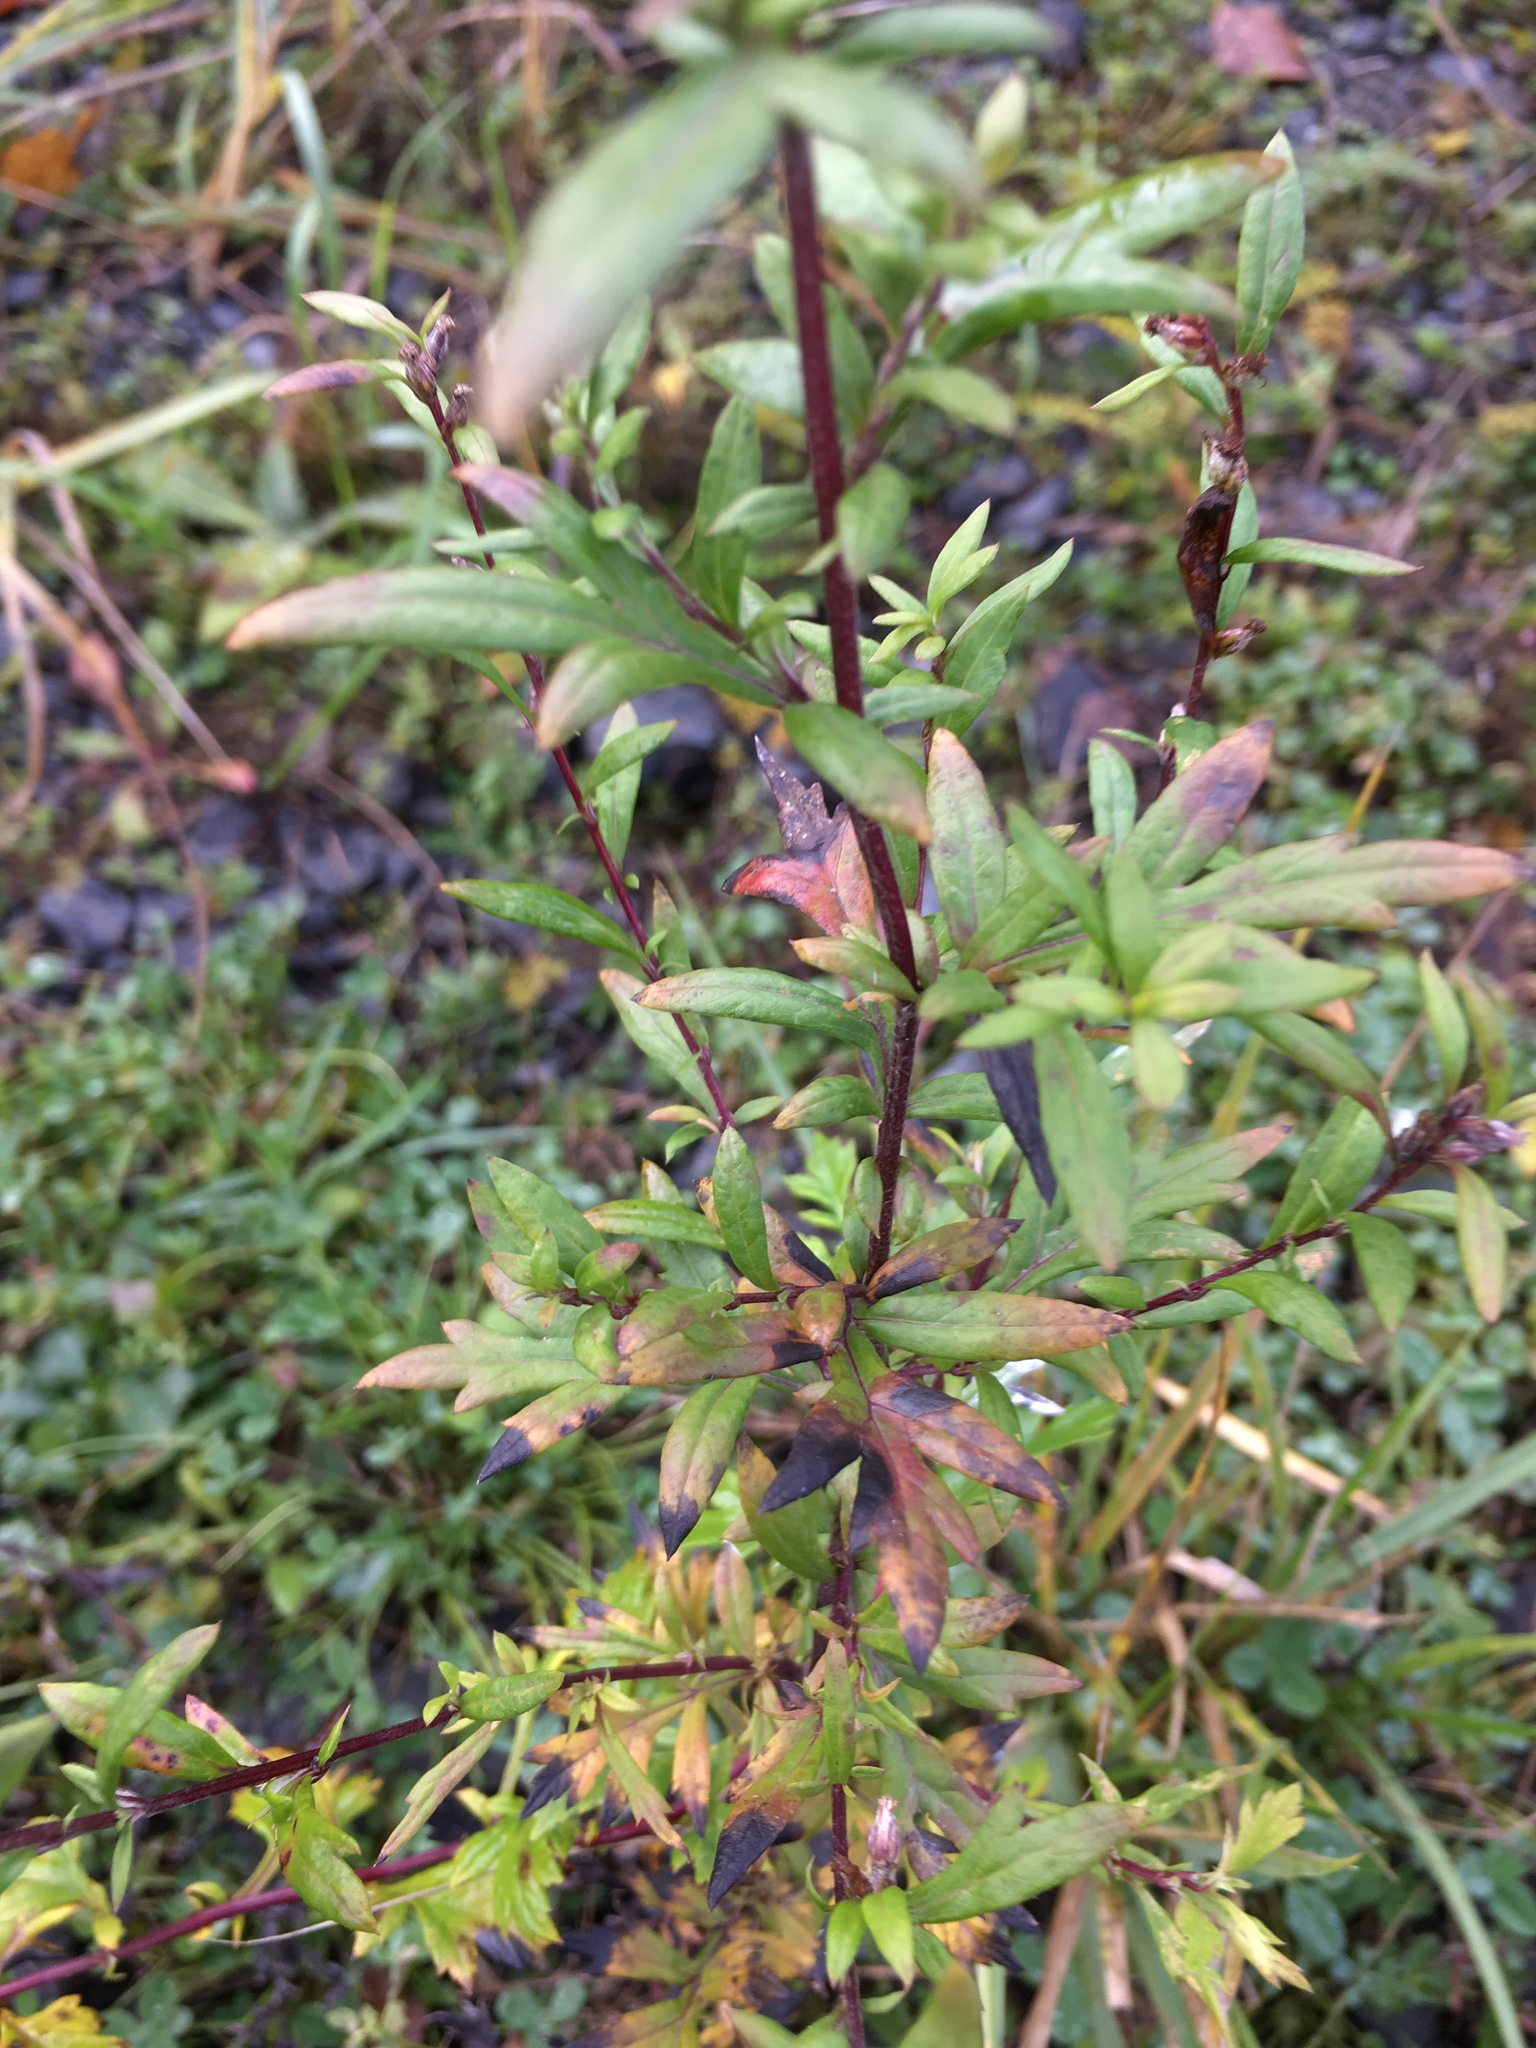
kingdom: Plantae
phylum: Tracheophyta
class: Magnoliopsida
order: Asterales
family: Asteraceae
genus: Artemisia
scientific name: Artemisia vulgaris
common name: Mugwort
